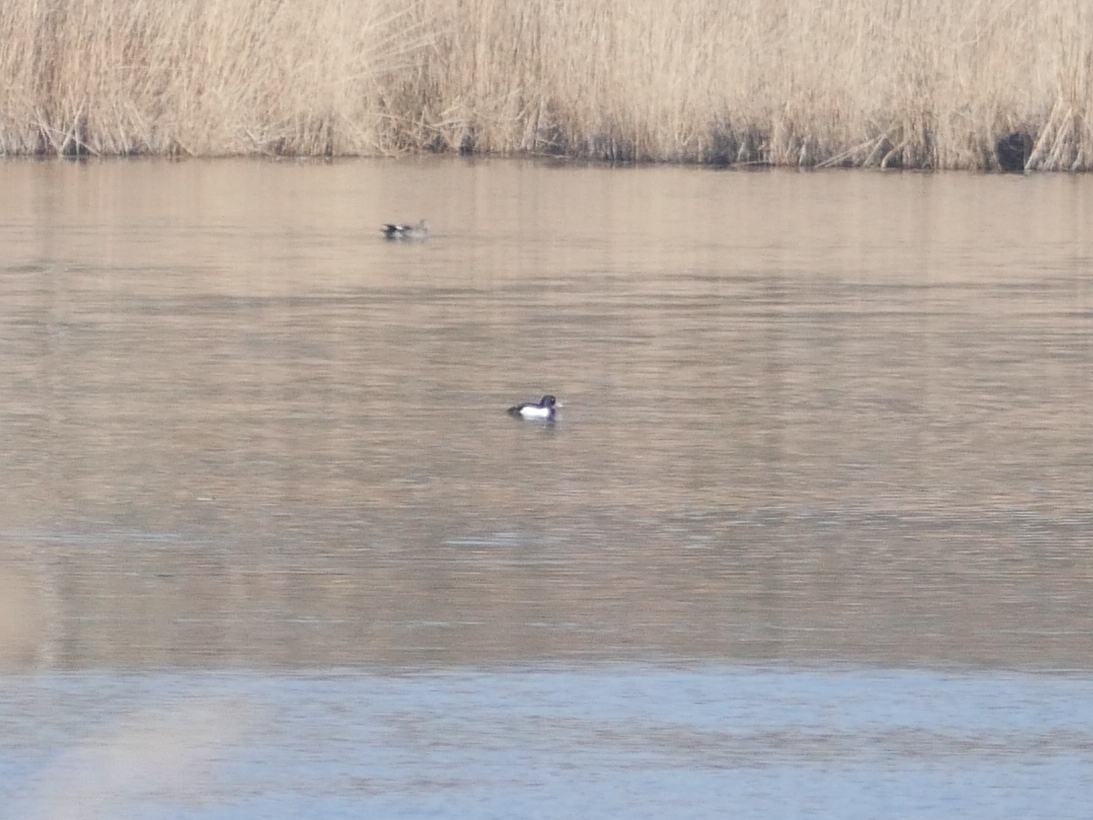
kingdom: Animalia
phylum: Chordata
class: Aves
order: Anseriformes
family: Anatidae
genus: Aythya
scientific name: Aythya fuligula
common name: Tufted duck
